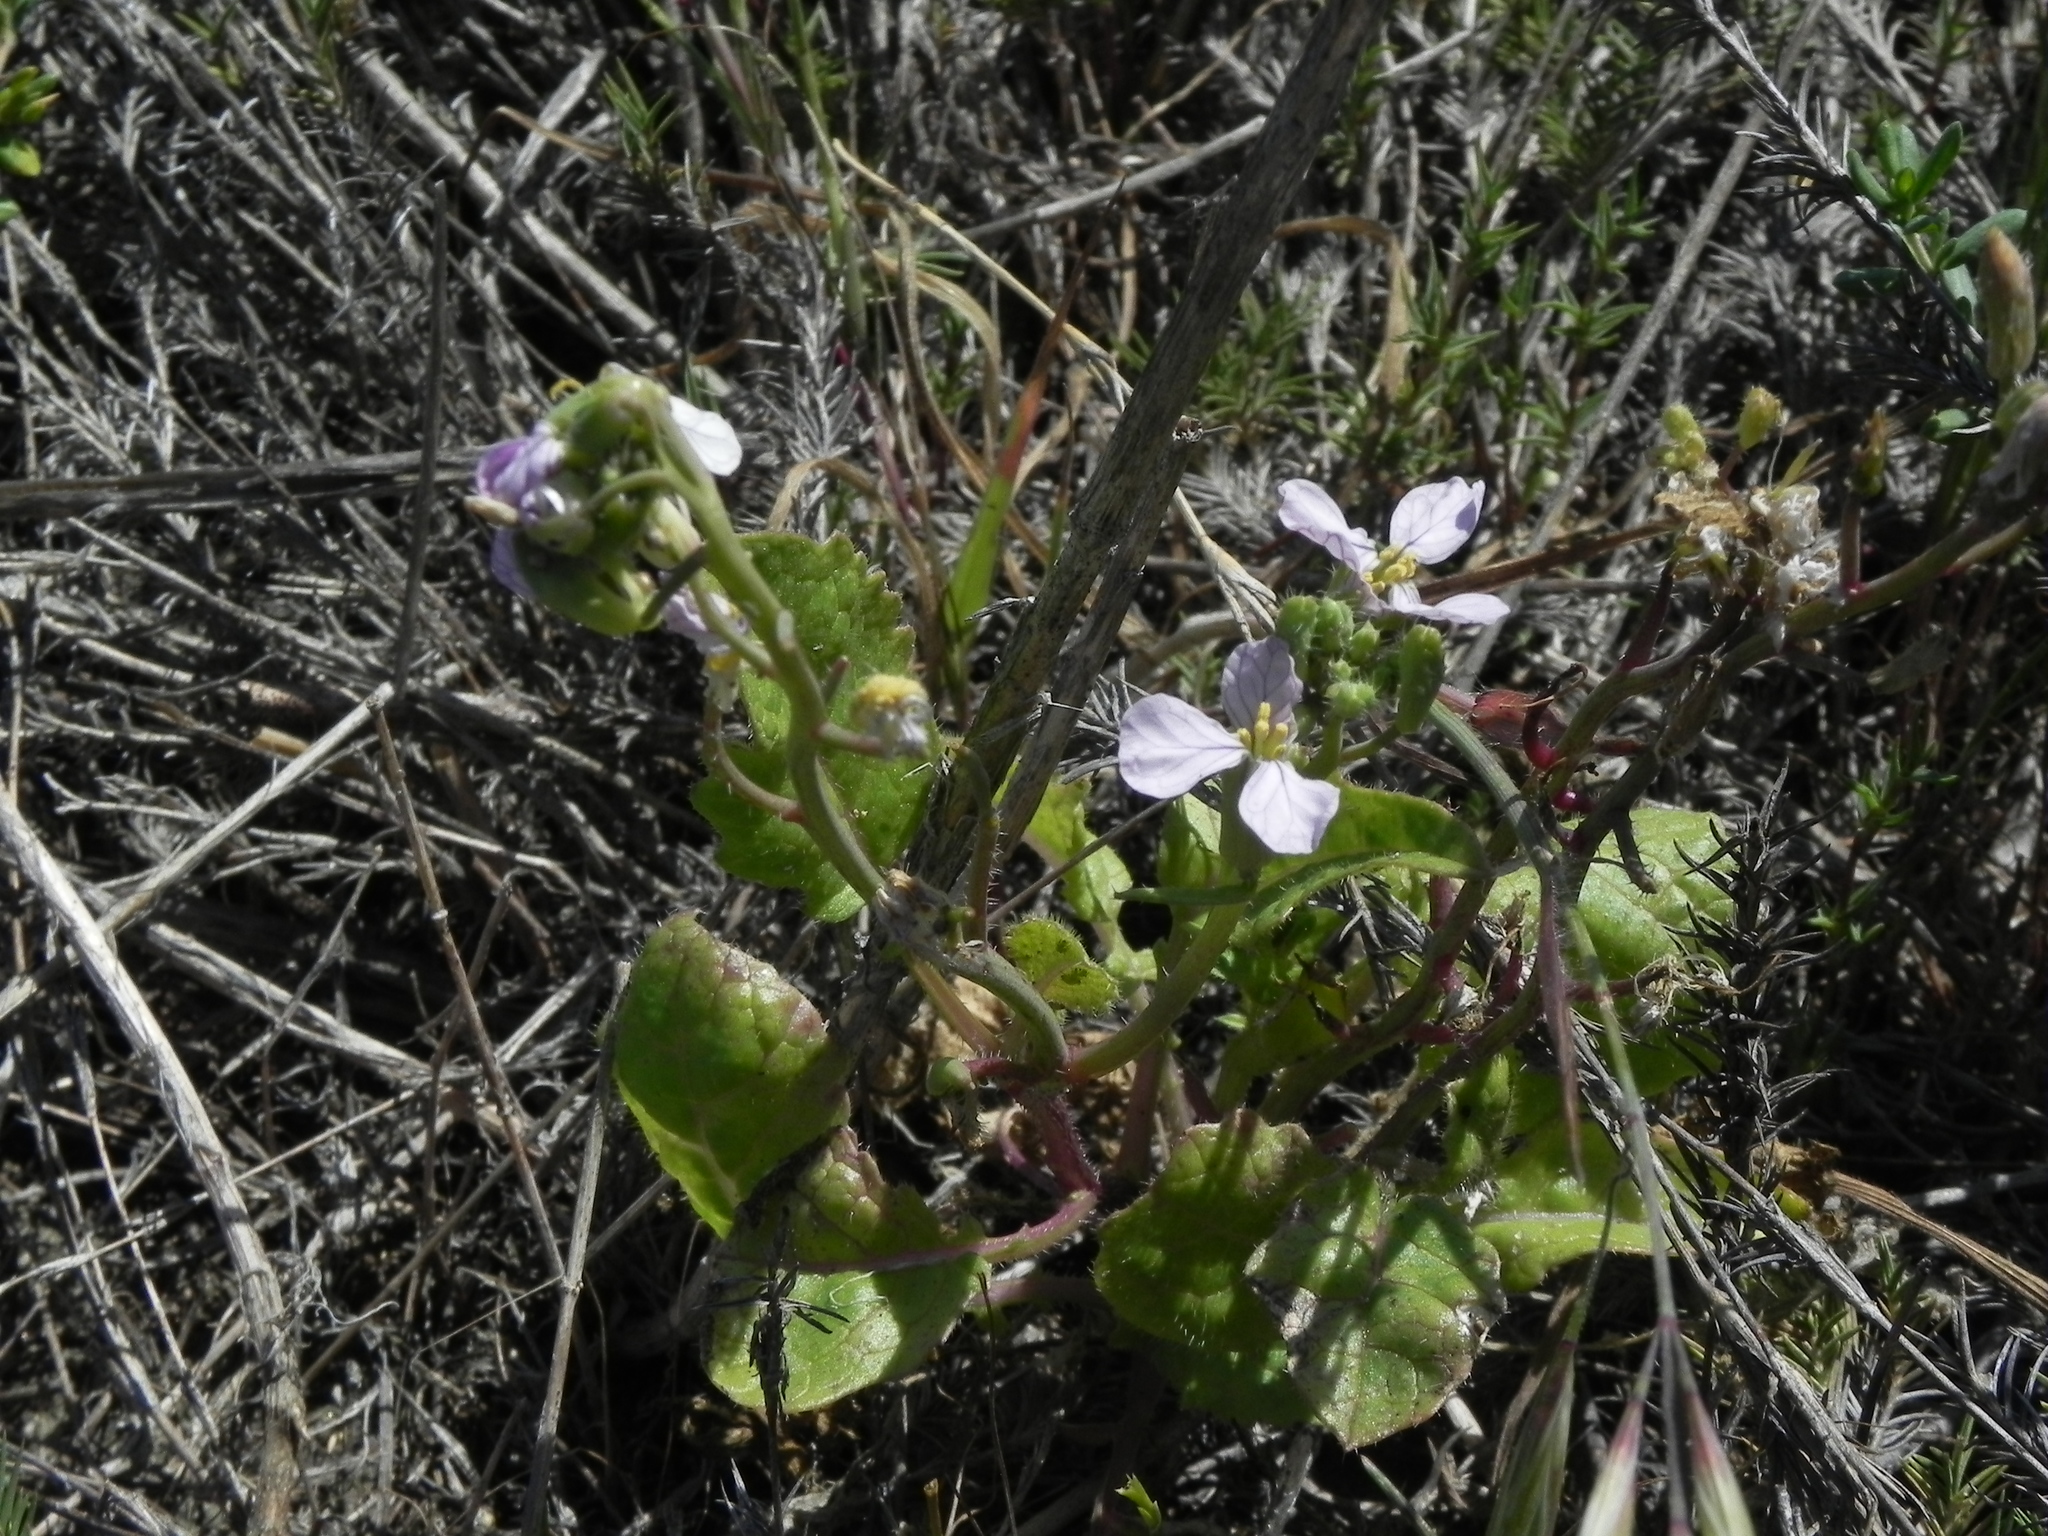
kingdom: Plantae
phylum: Tracheophyta
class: Magnoliopsida
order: Brassicales
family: Brassicaceae
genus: Raphanus
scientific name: Raphanus sativus
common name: Cultivated radish
